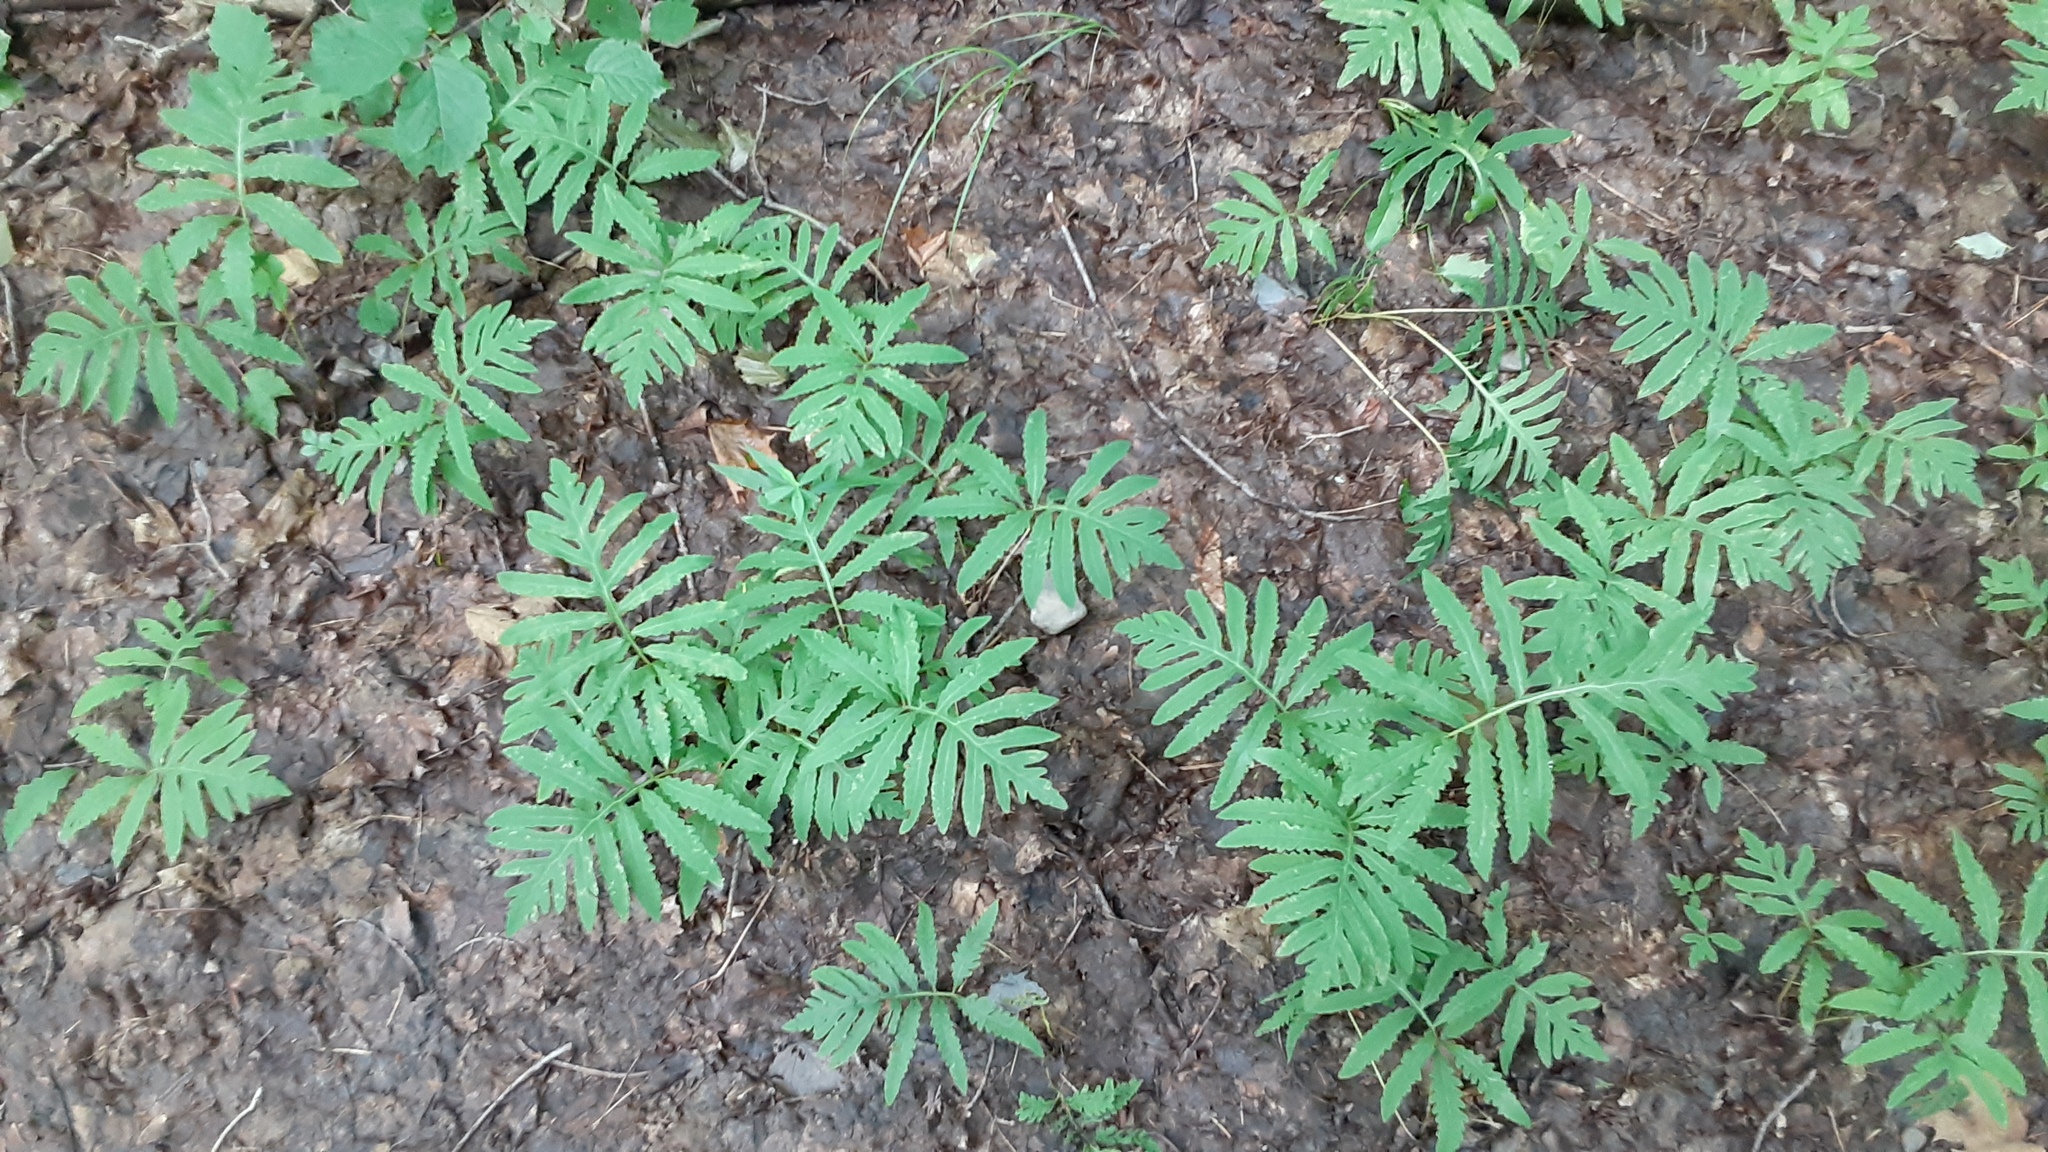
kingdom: Plantae
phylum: Tracheophyta
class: Polypodiopsida
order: Polypodiales
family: Onocleaceae
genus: Onoclea
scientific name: Onoclea sensibilis
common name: Sensitive fern
